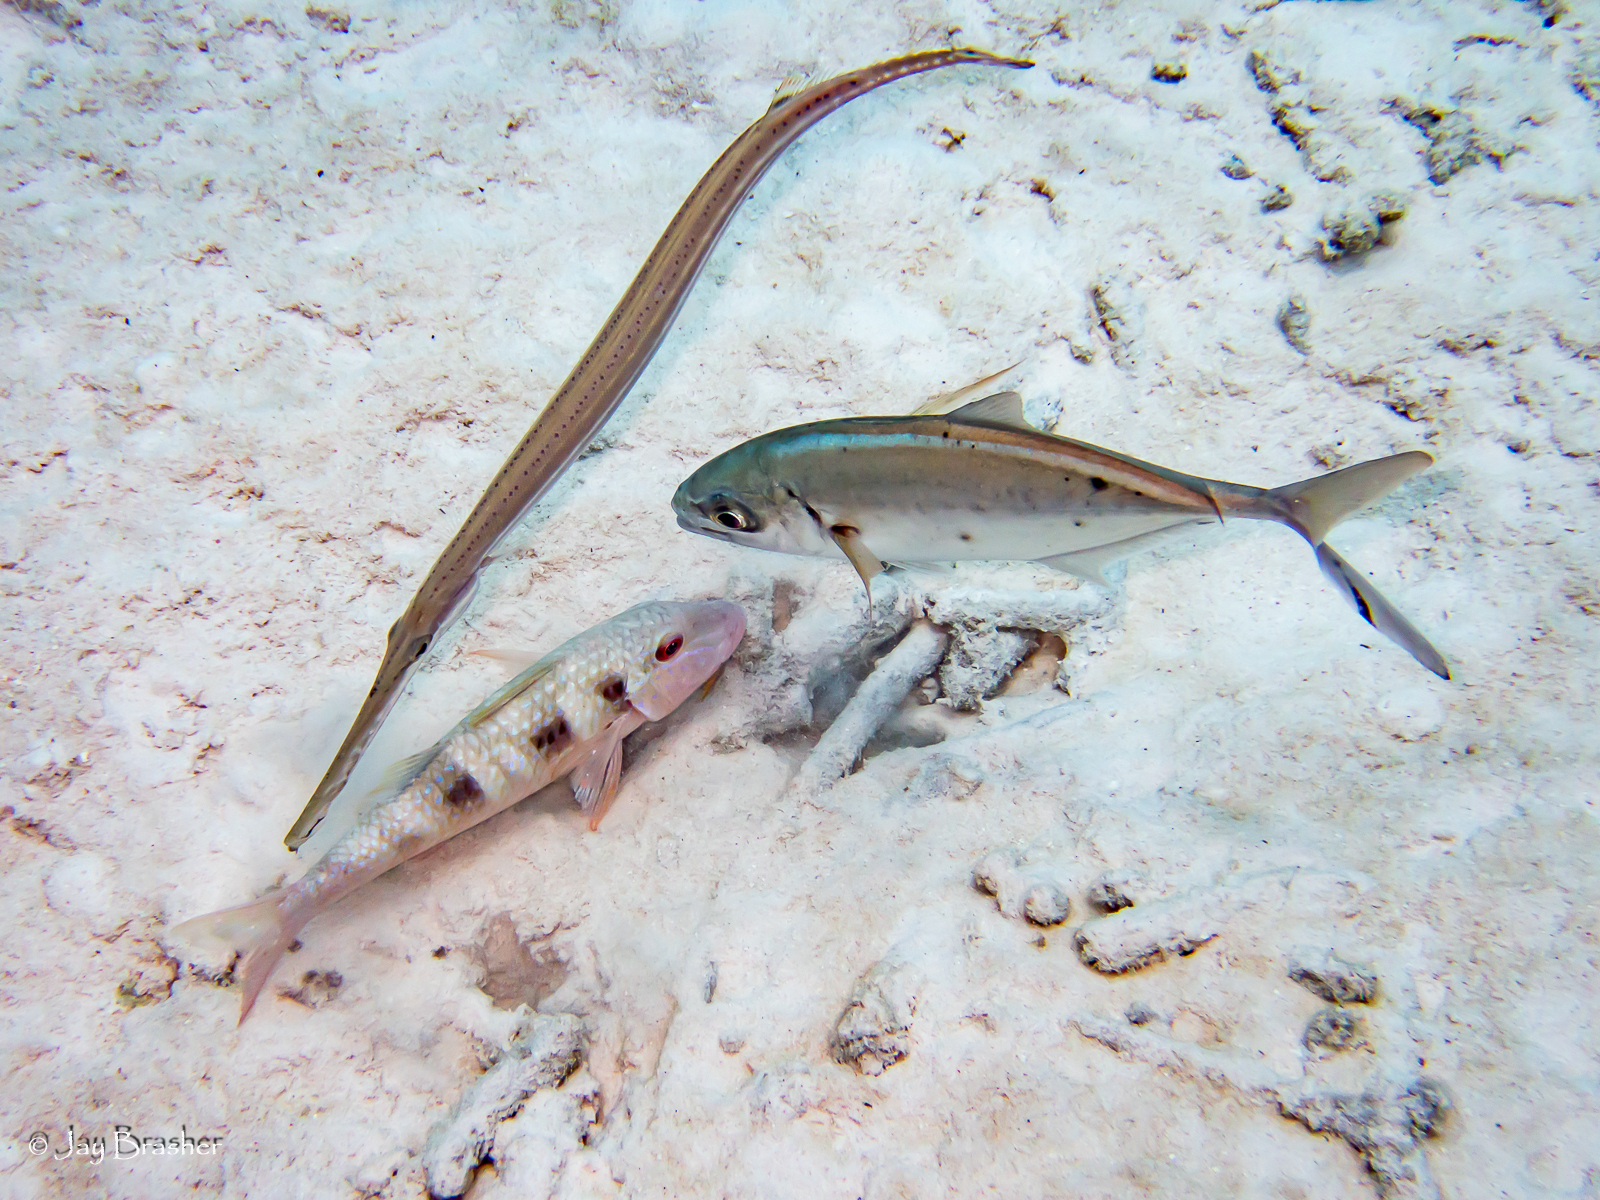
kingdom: Animalia
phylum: Chordata
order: Syngnathiformes
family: Aulostomidae
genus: Aulostomus
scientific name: Aulostomus maculatus
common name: West atlantic trumpetfish
